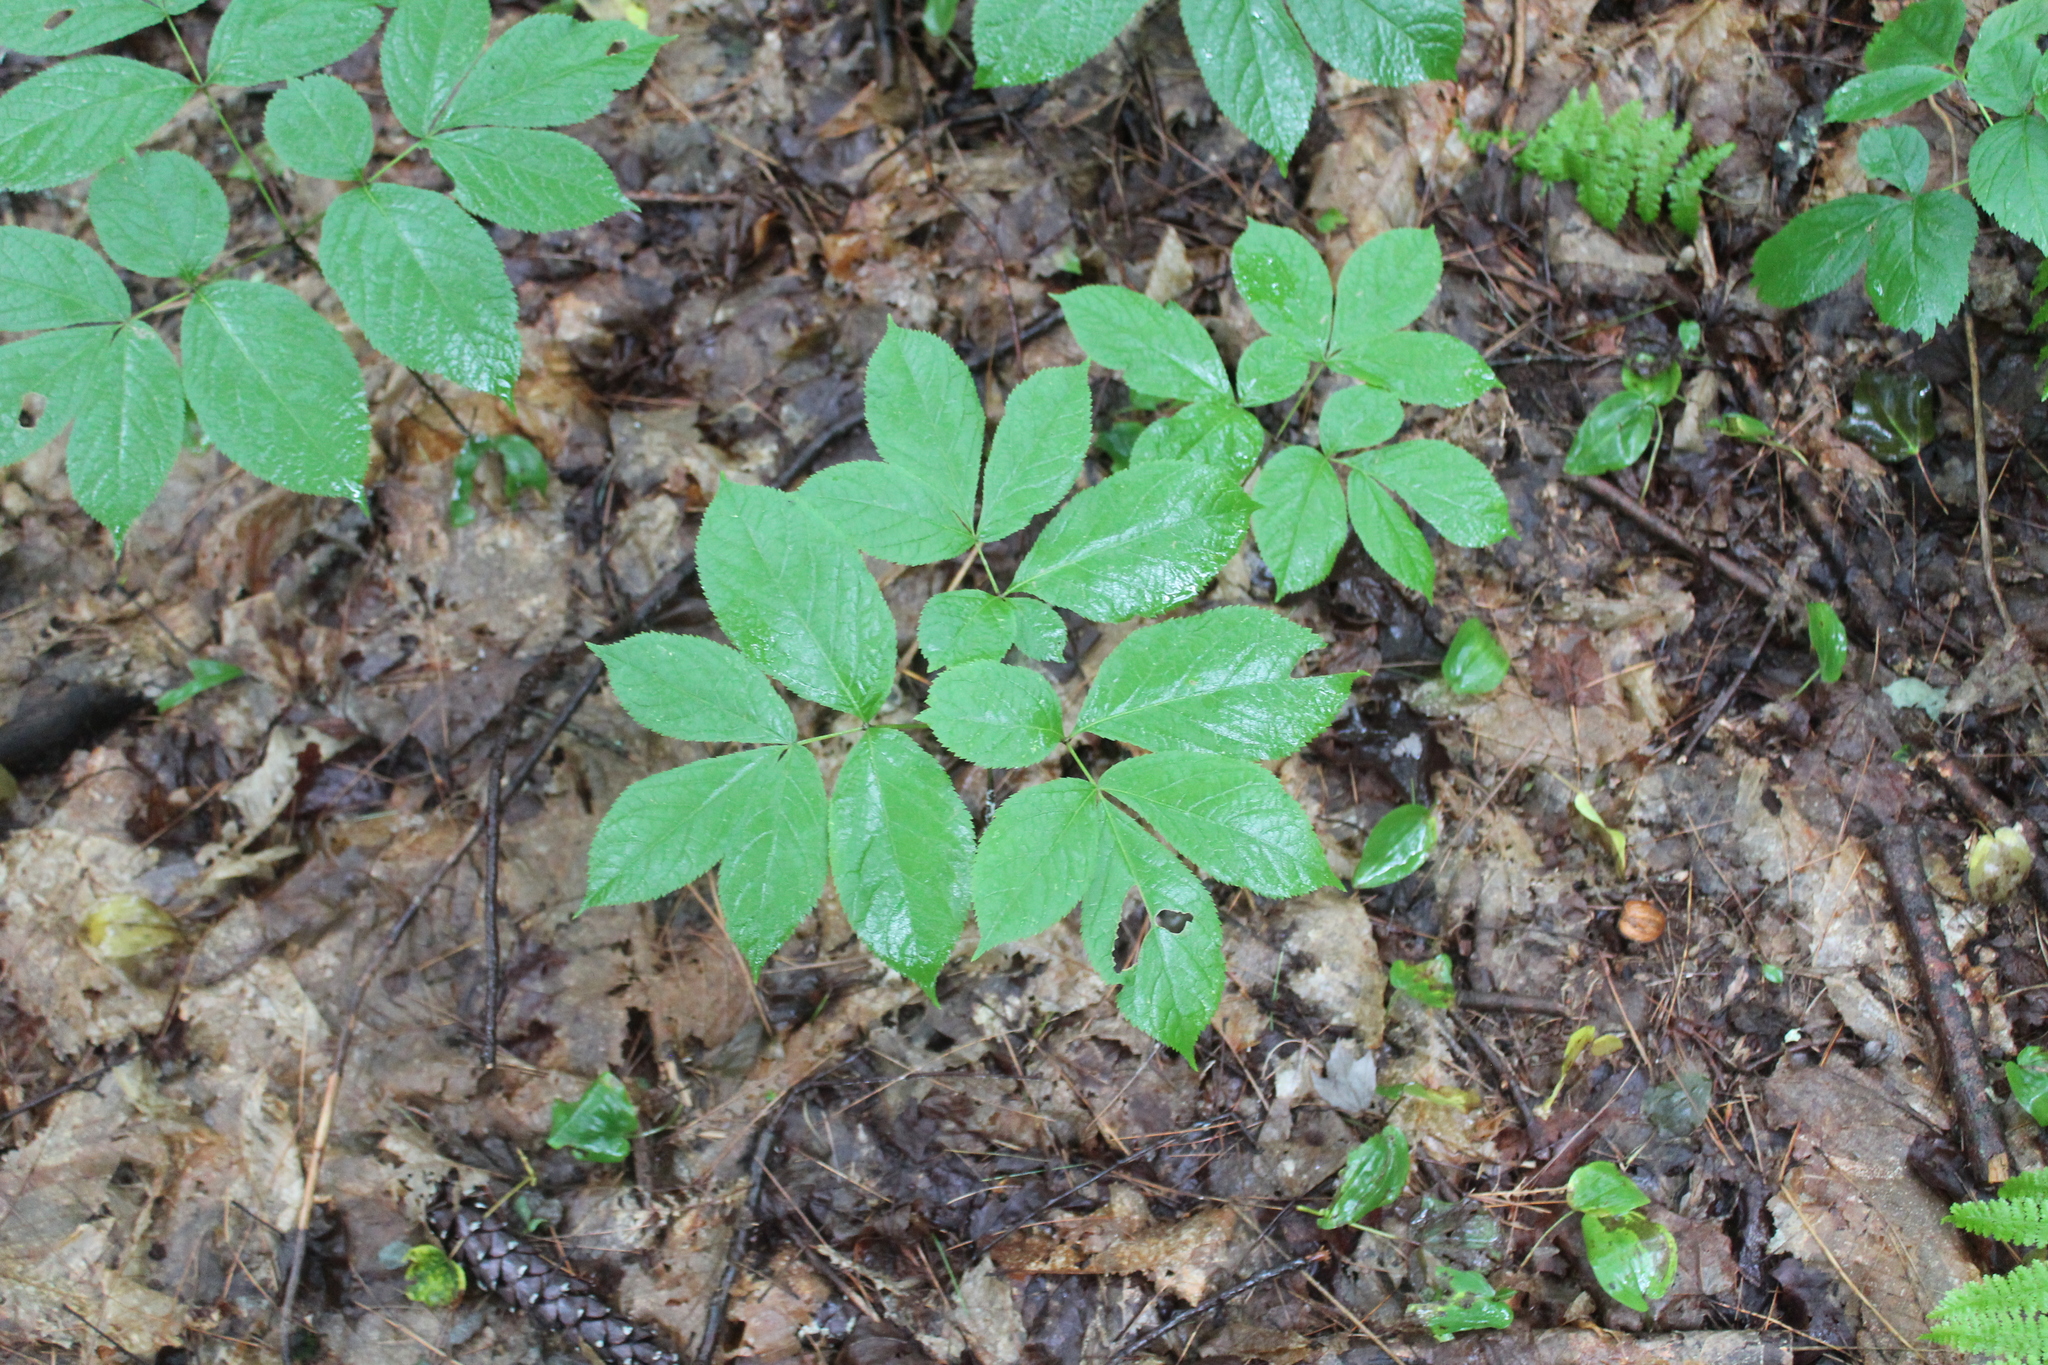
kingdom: Plantae
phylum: Tracheophyta
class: Magnoliopsida
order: Apiales
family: Araliaceae
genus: Aralia
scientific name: Aralia nudicaulis
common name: Wild sarsaparilla
